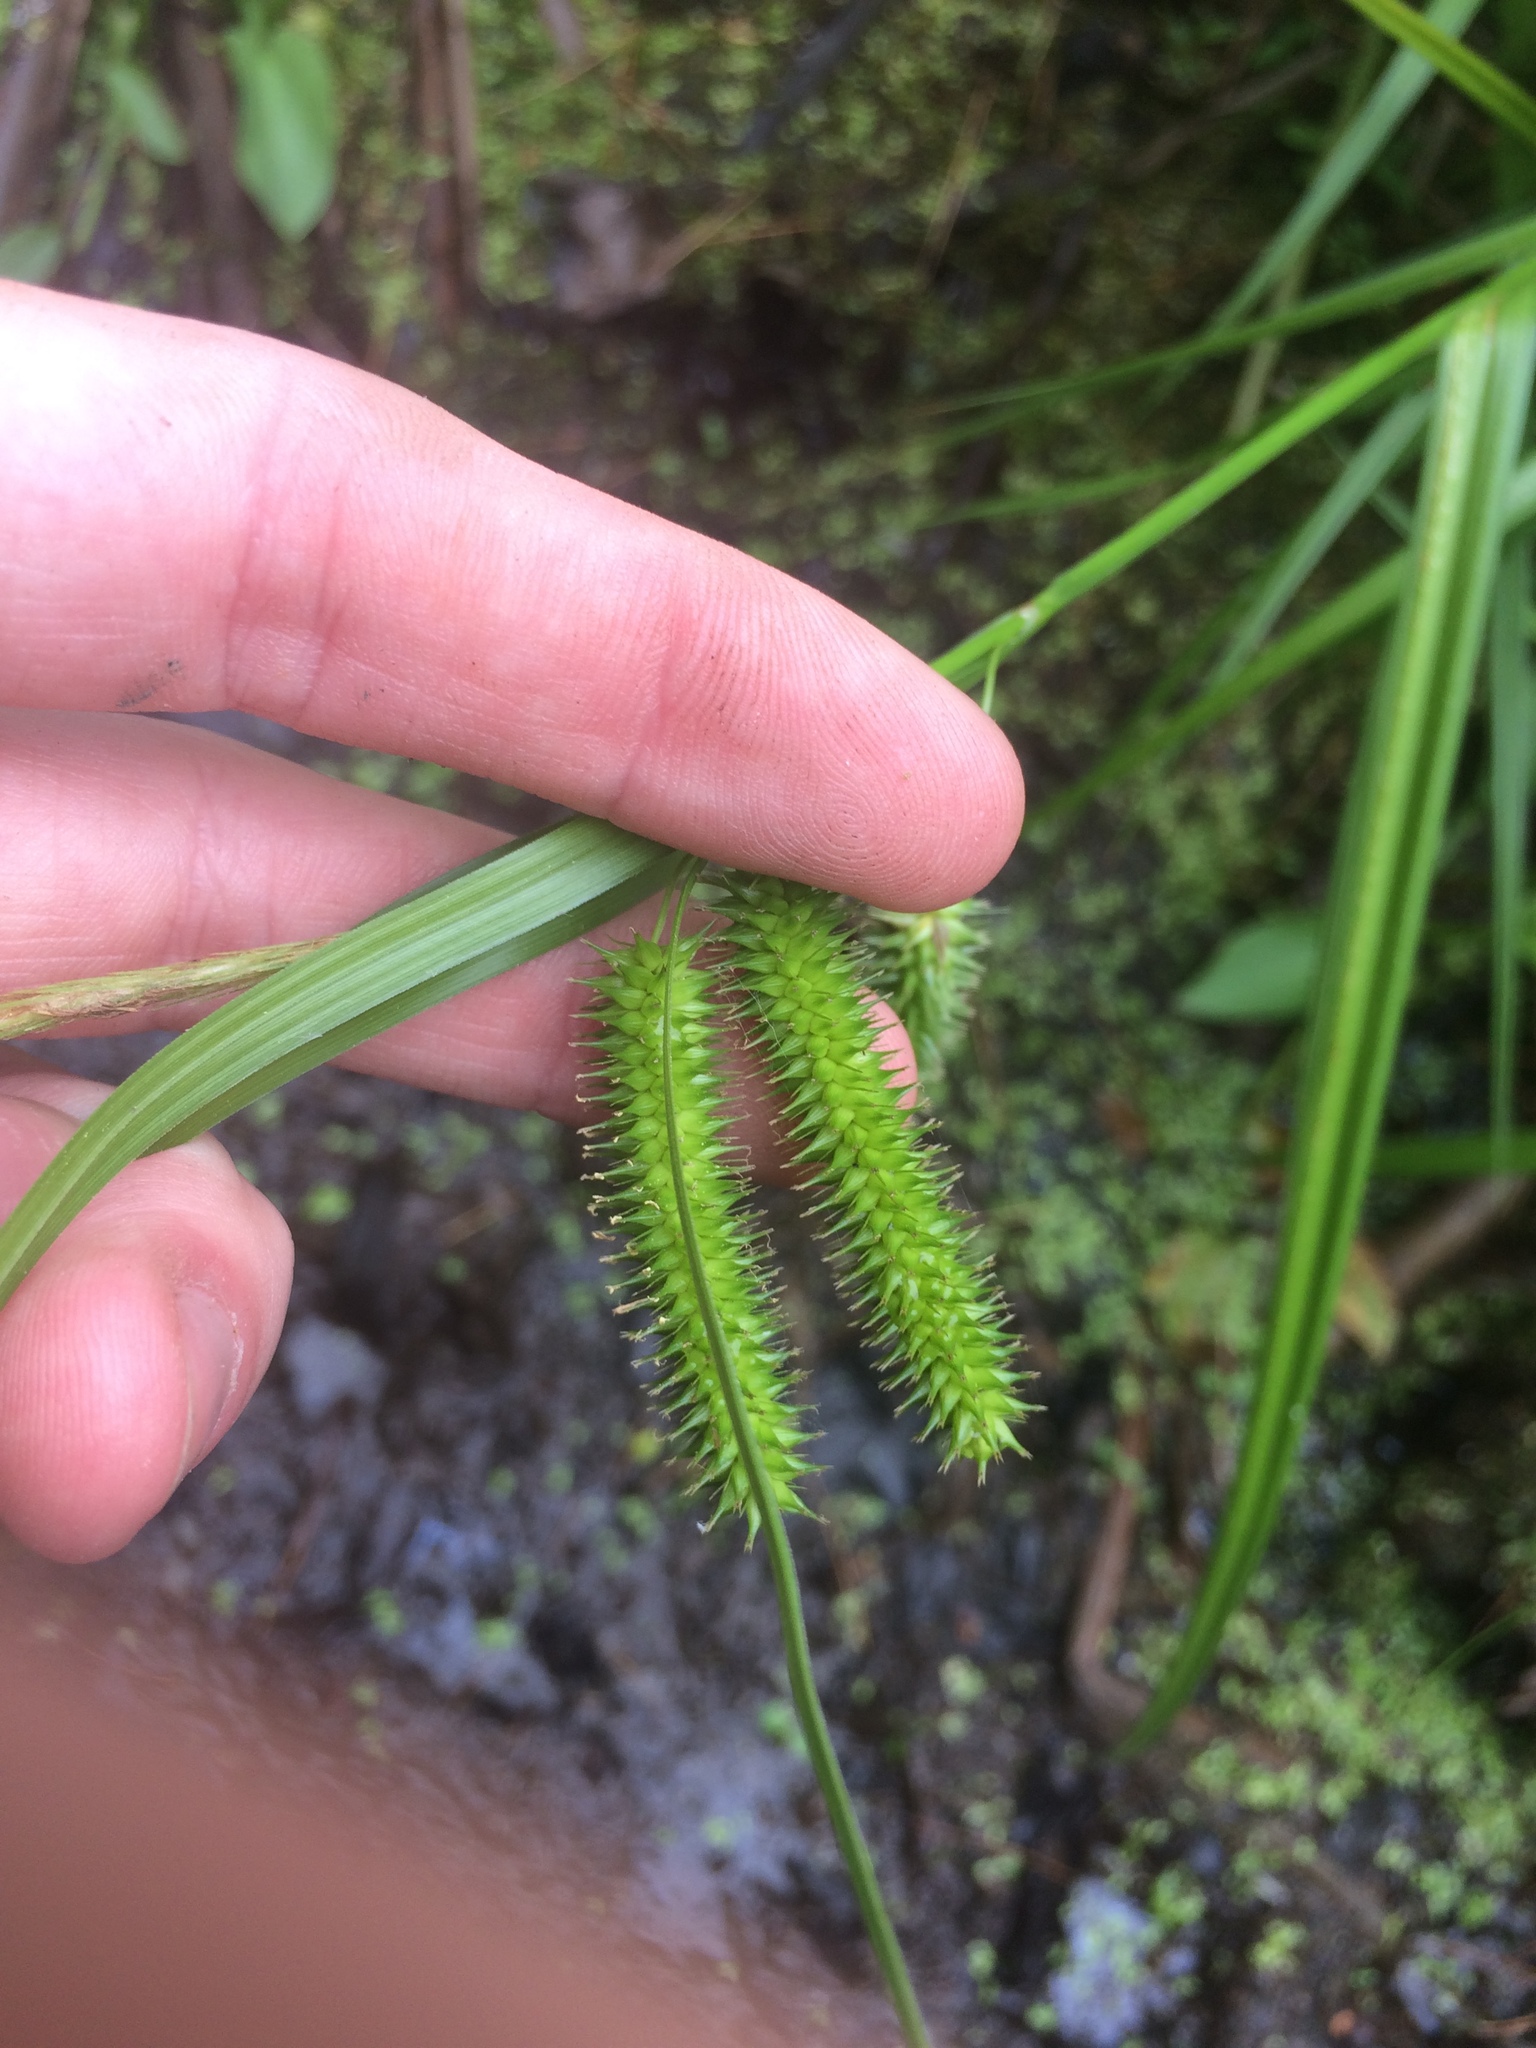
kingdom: Plantae
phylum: Tracheophyta
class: Liliopsida
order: Poales
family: Cyperaceae
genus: Carex
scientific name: Carex pseudocyperus
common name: Cyperus sedge
